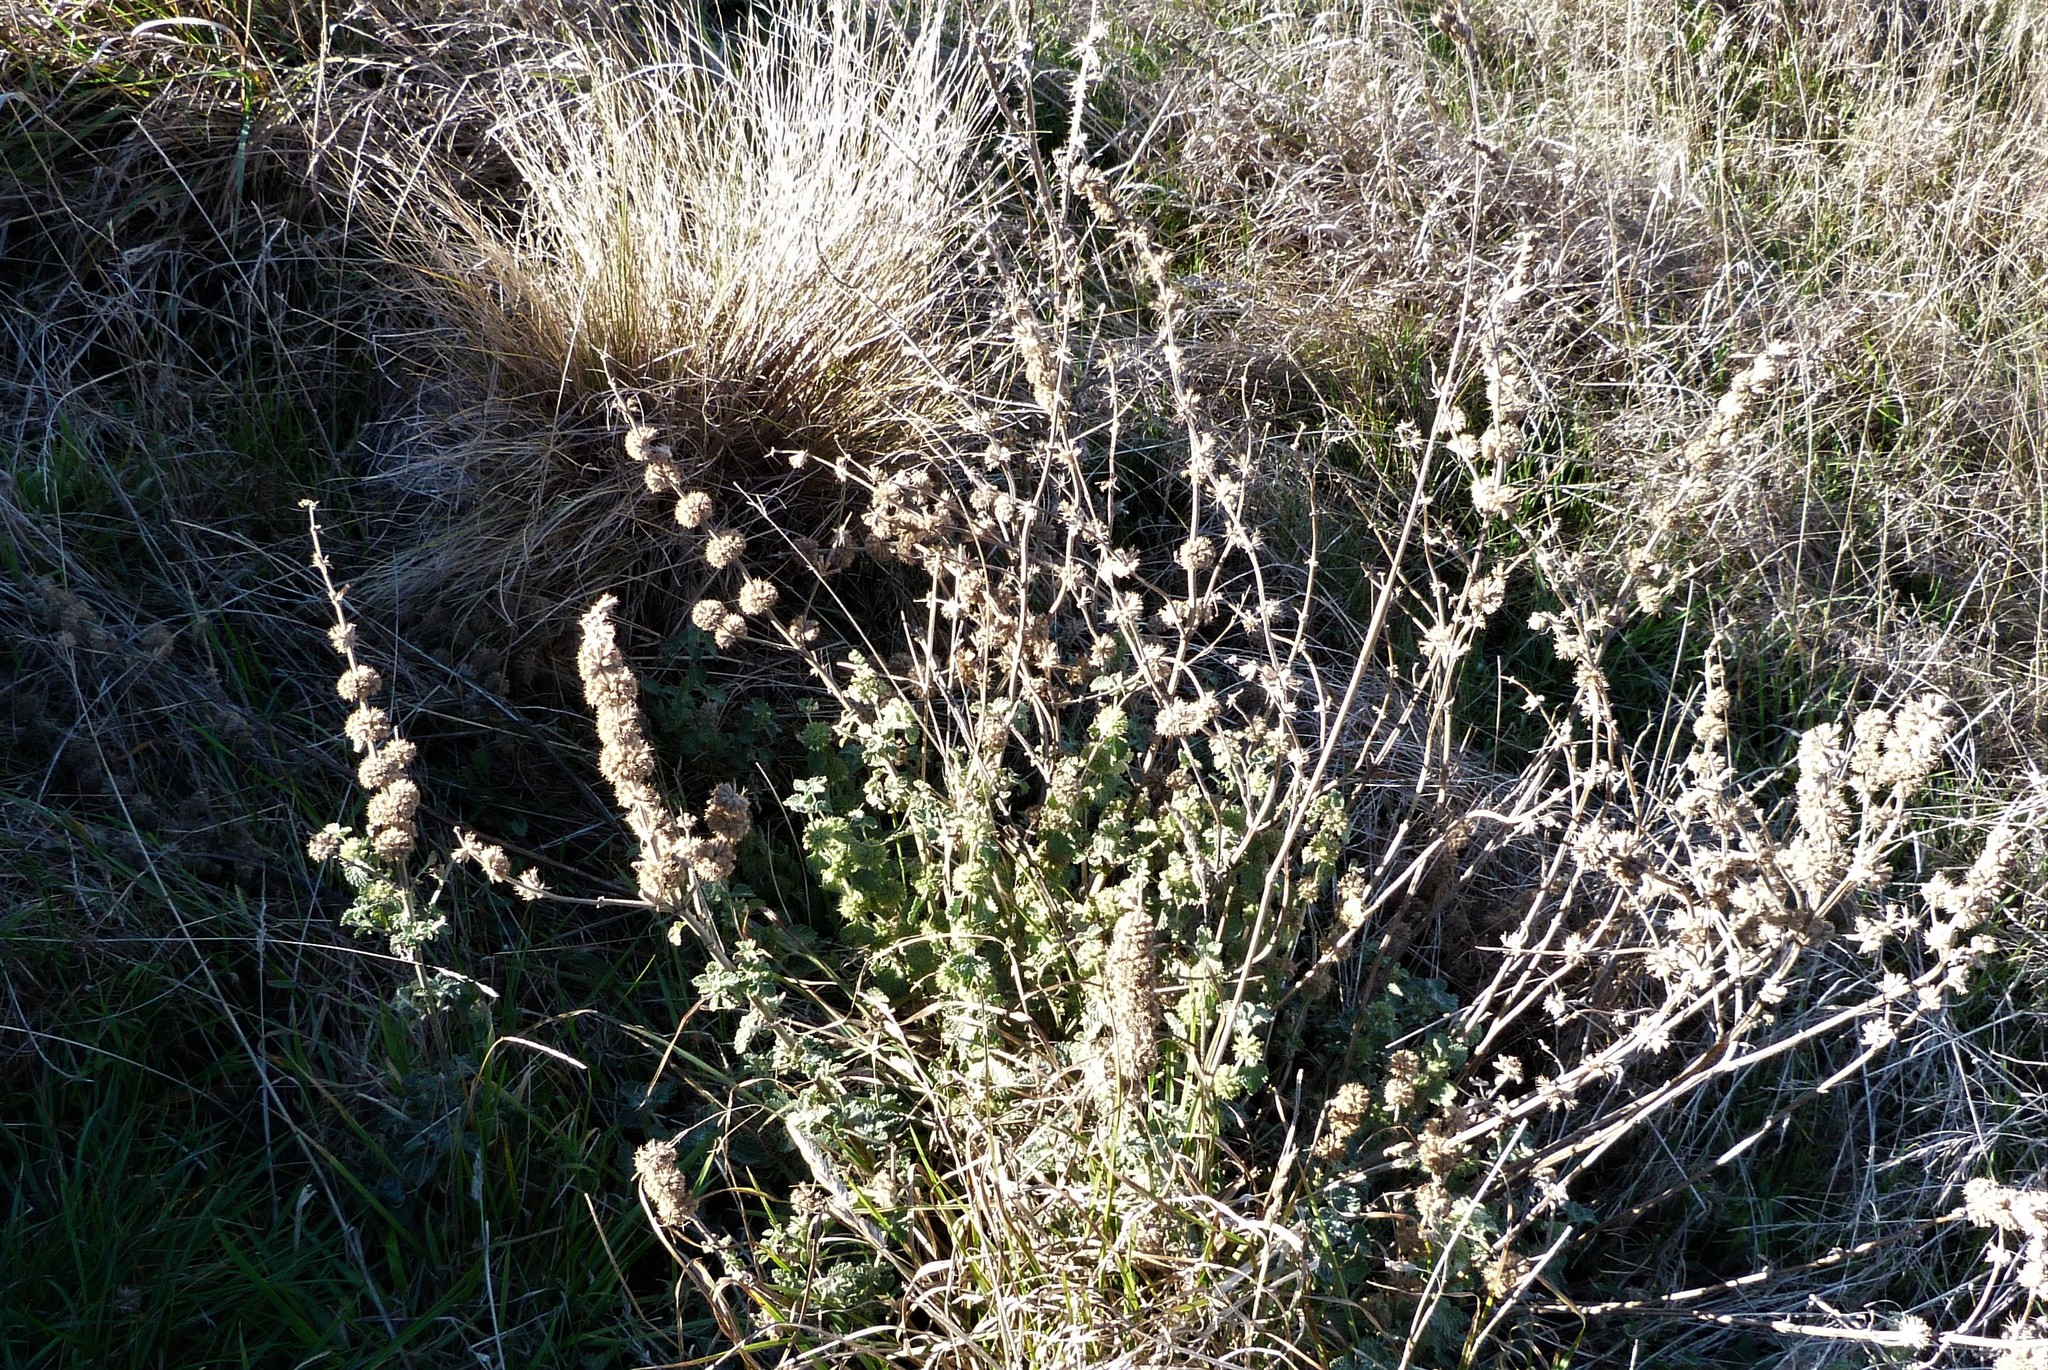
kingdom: Plantae
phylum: Tracheophyta
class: Magnoliopsida
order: Lamiales
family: Lamiaceae
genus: Marrubium
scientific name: Marrubium vulgare
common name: Horehound
